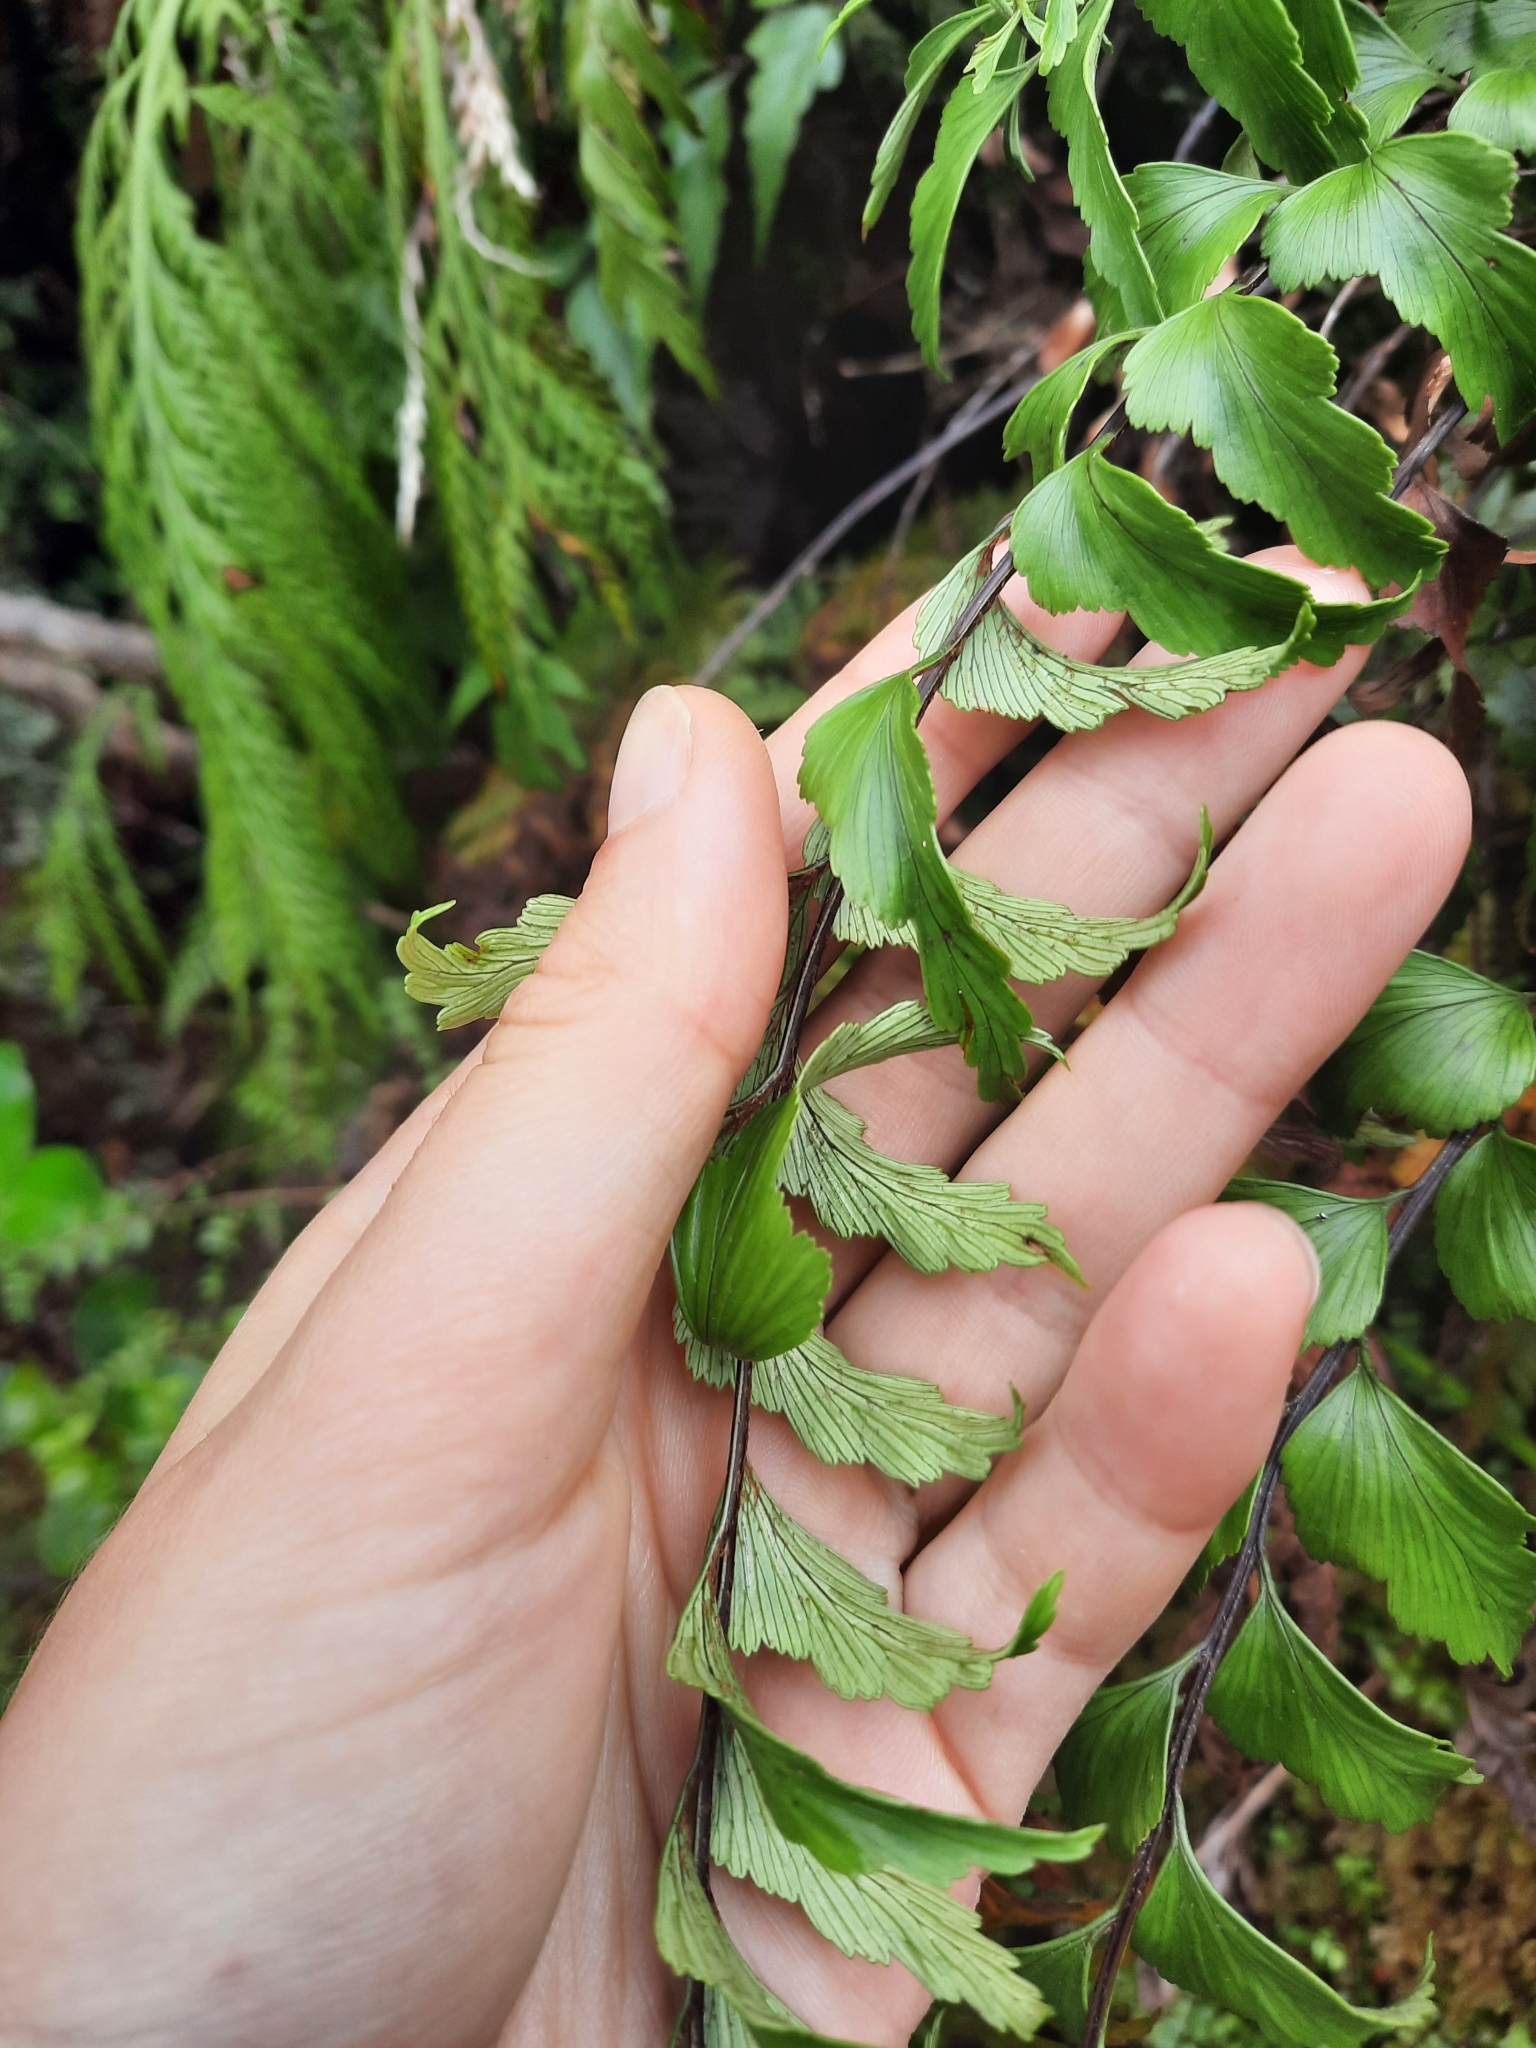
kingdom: Plantae
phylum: Tracheophyta
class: Polypodiopsida
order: Polypodiales
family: Aspleniaceae
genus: Asplenium
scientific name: Asplenium polyodon
